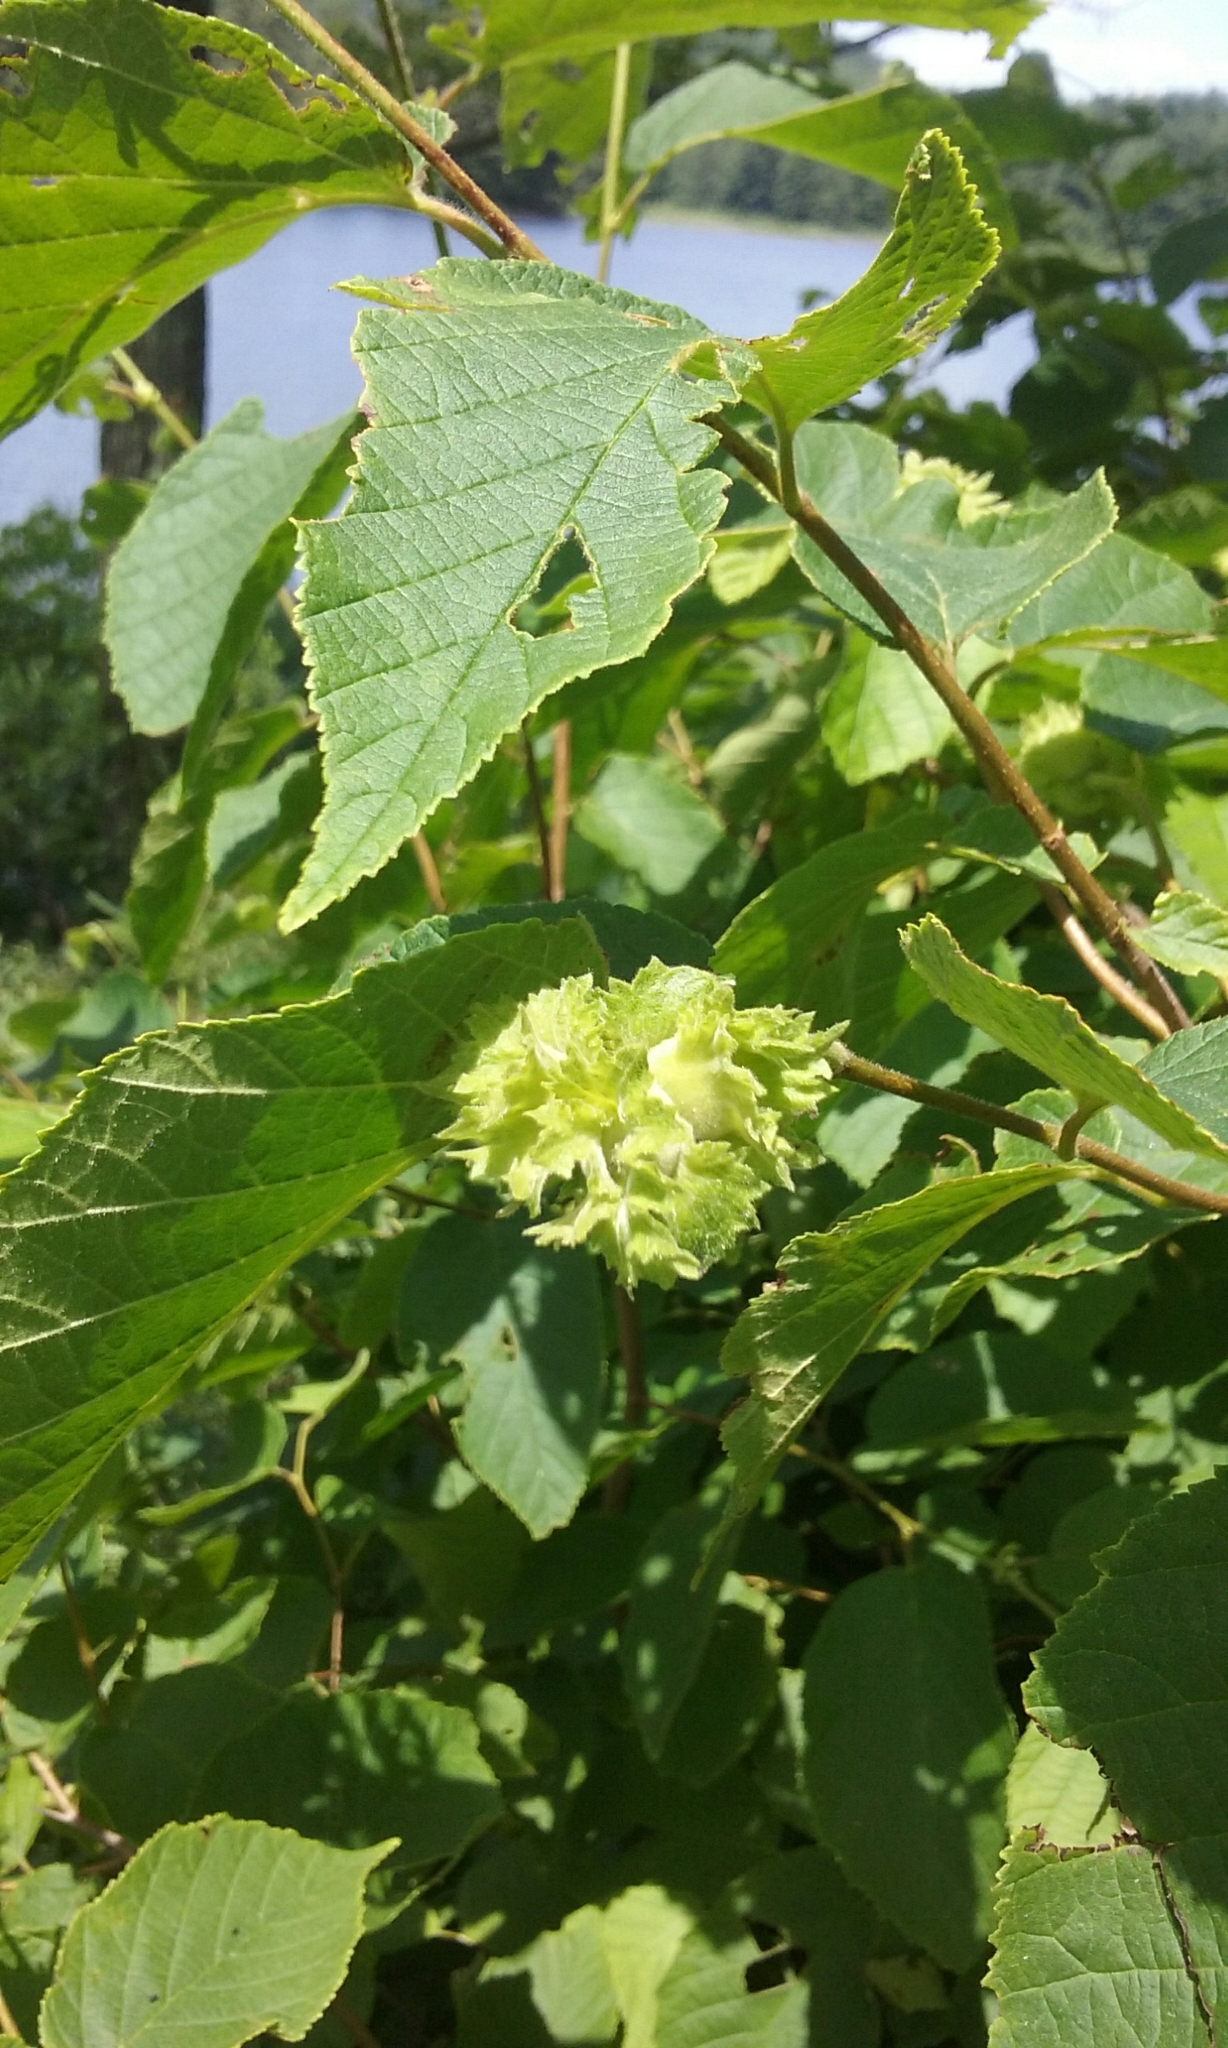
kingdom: Plantae
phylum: Tracheophyta
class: Magnoliopsida
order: Fagales
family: Betulaceae
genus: Corylus
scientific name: Corylus americana
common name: American hazel
